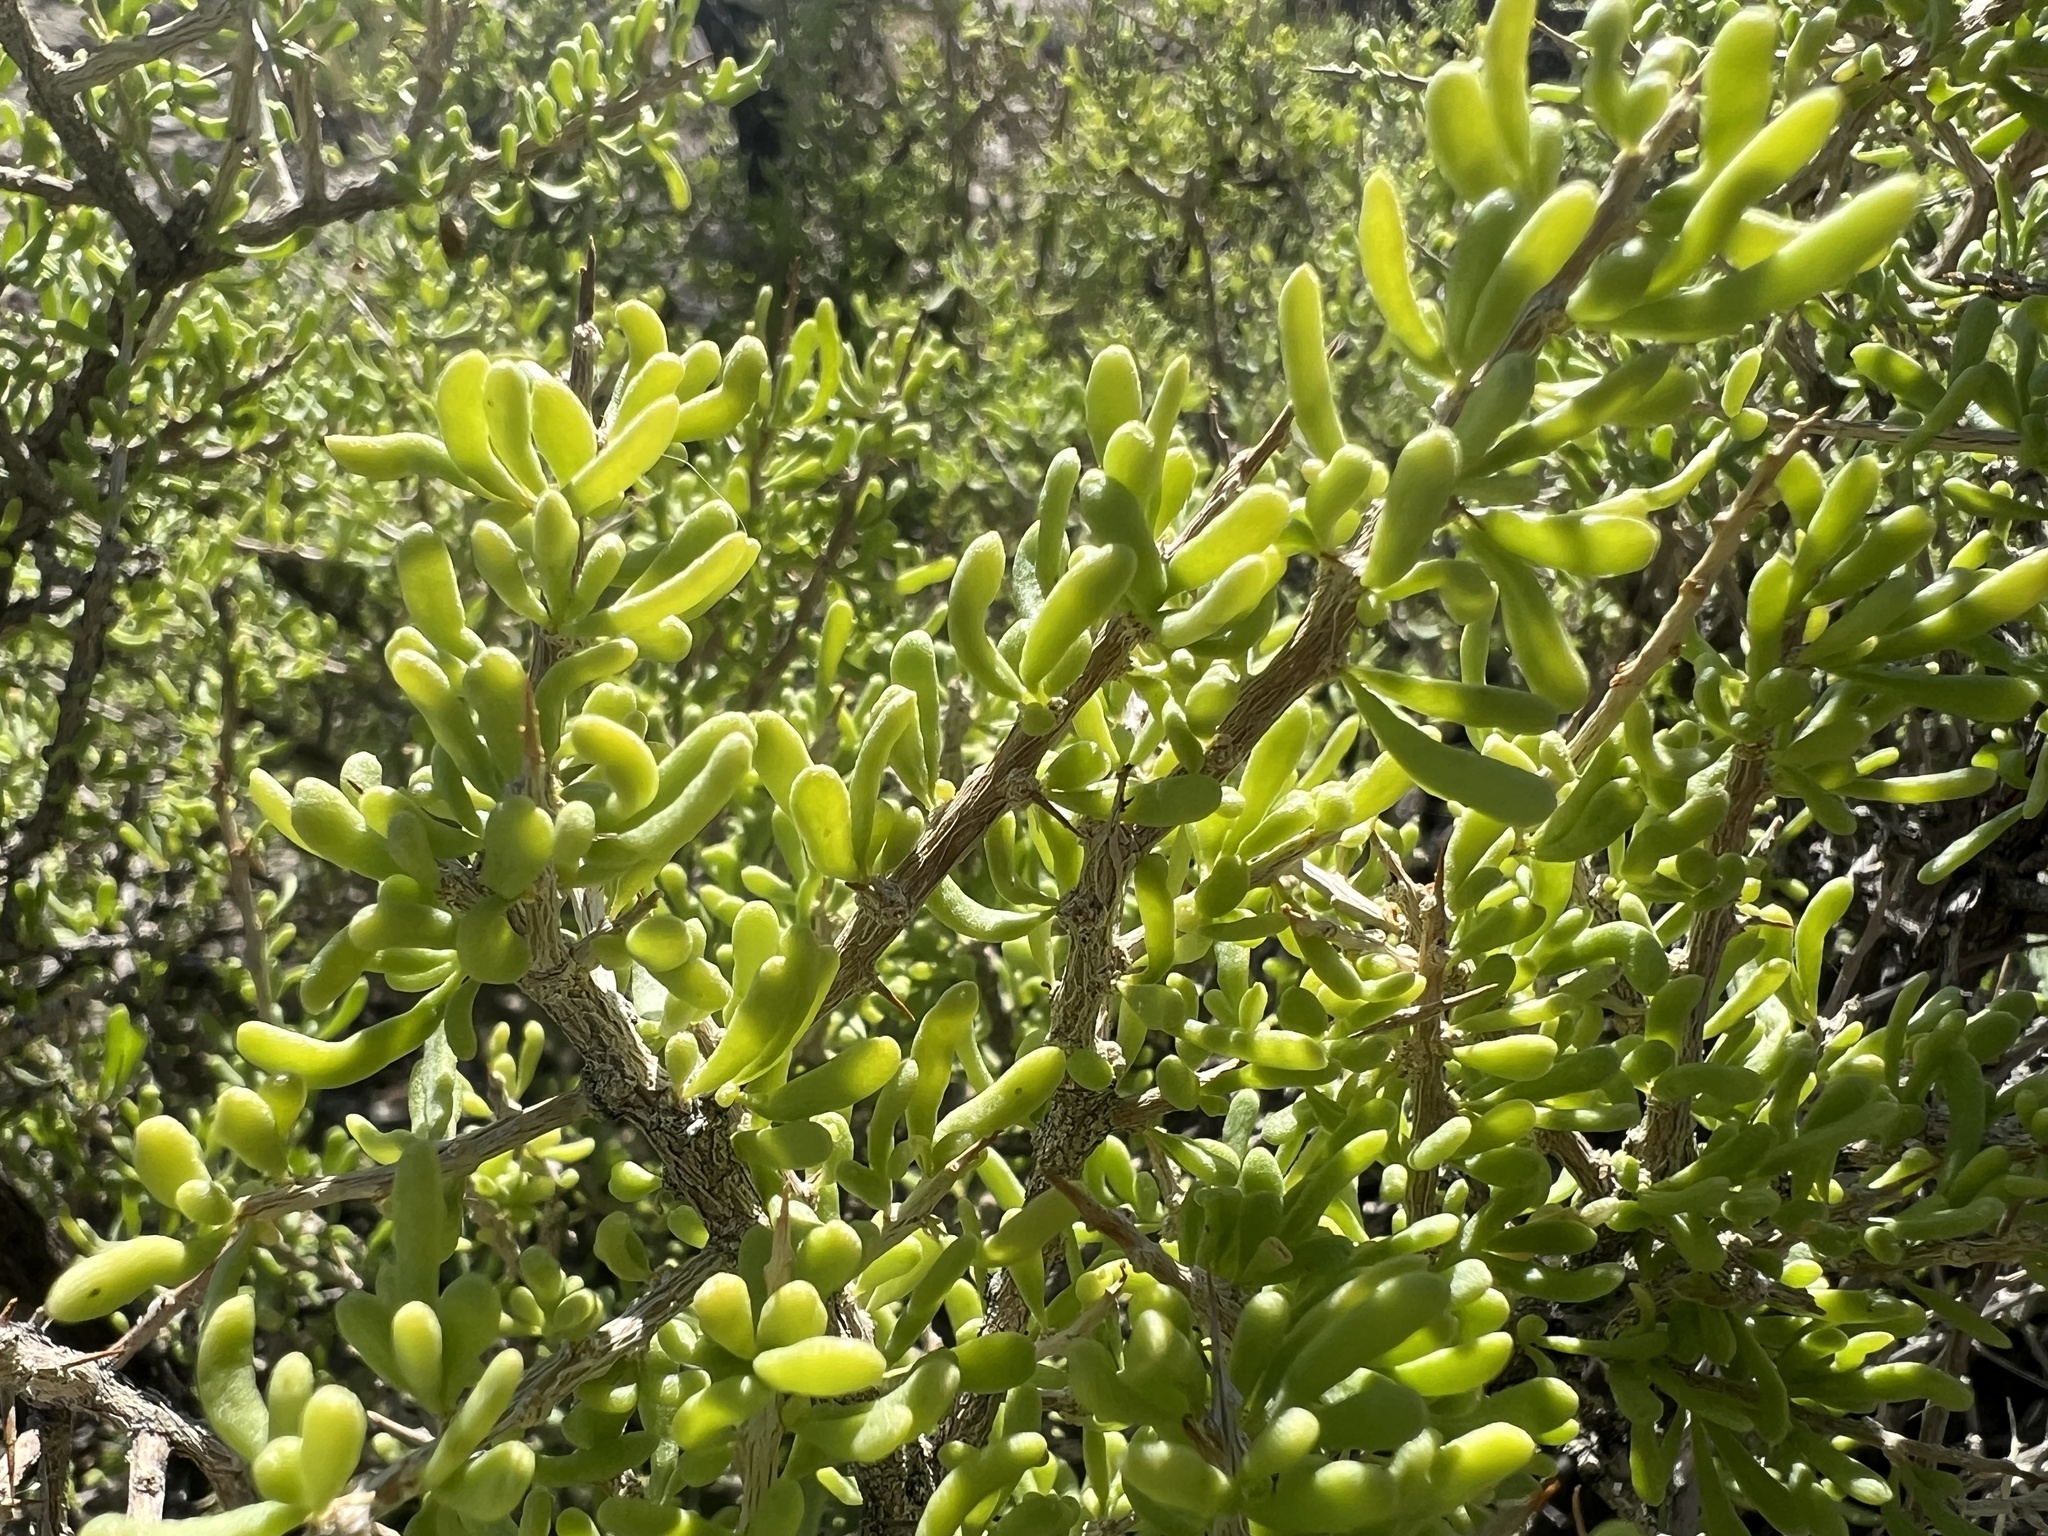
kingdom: Plantae
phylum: Tracheophyta
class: Magnoliopsida
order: Solanales
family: Solanaceae
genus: Lycium
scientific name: Lycium andersonii
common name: Water-jacket
